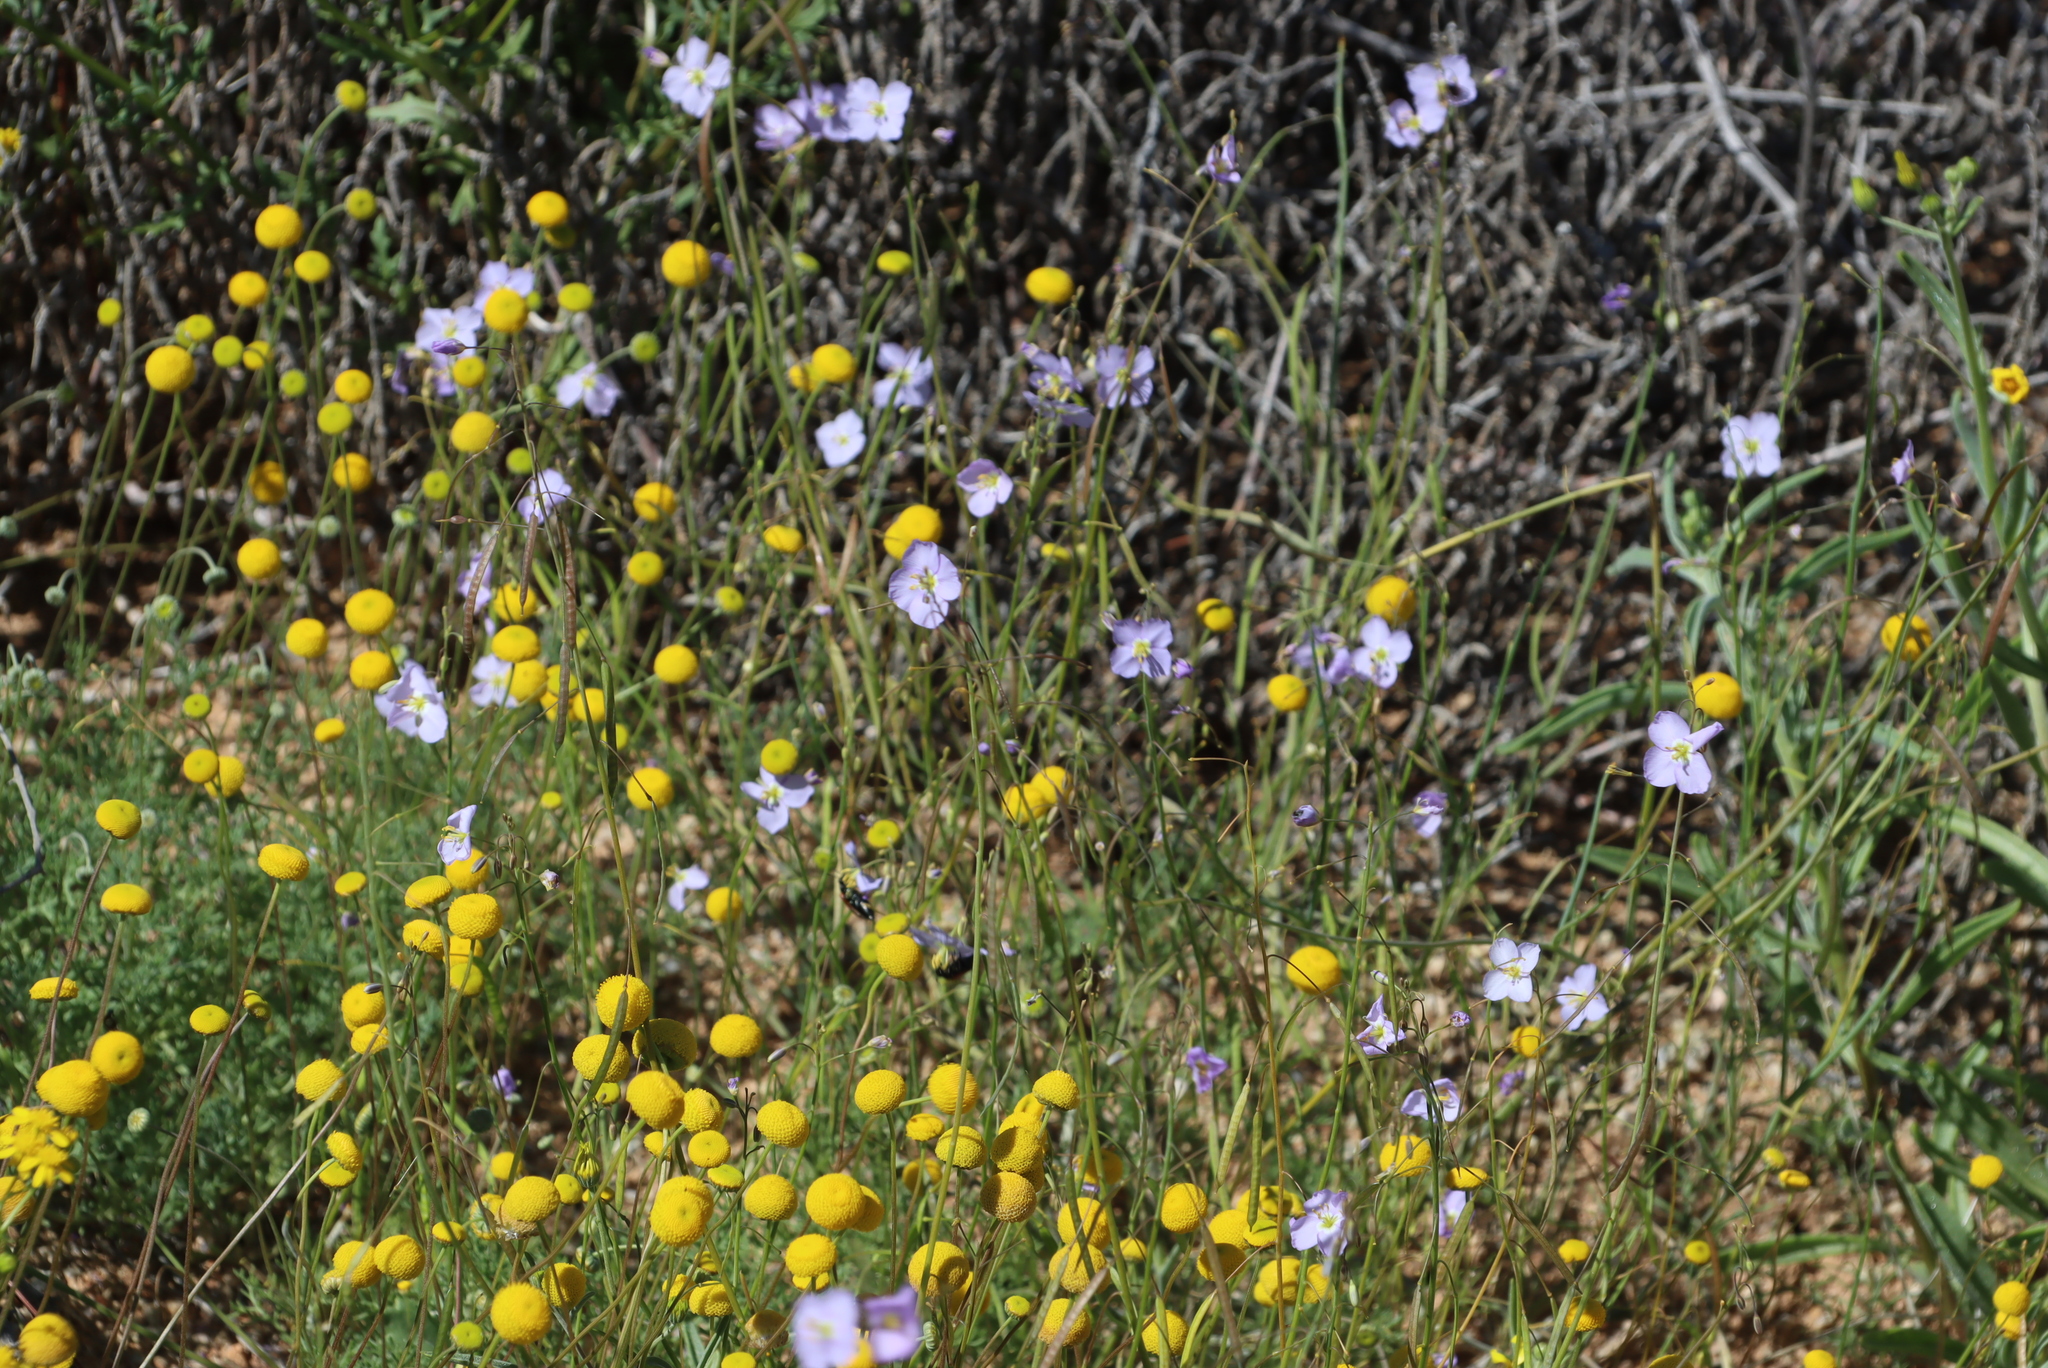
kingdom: Plantae
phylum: Tracheophyta
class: Magnoliopsida
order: Brassicales
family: Brassicaceae
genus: Heliophila
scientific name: Heliophila trifurca
